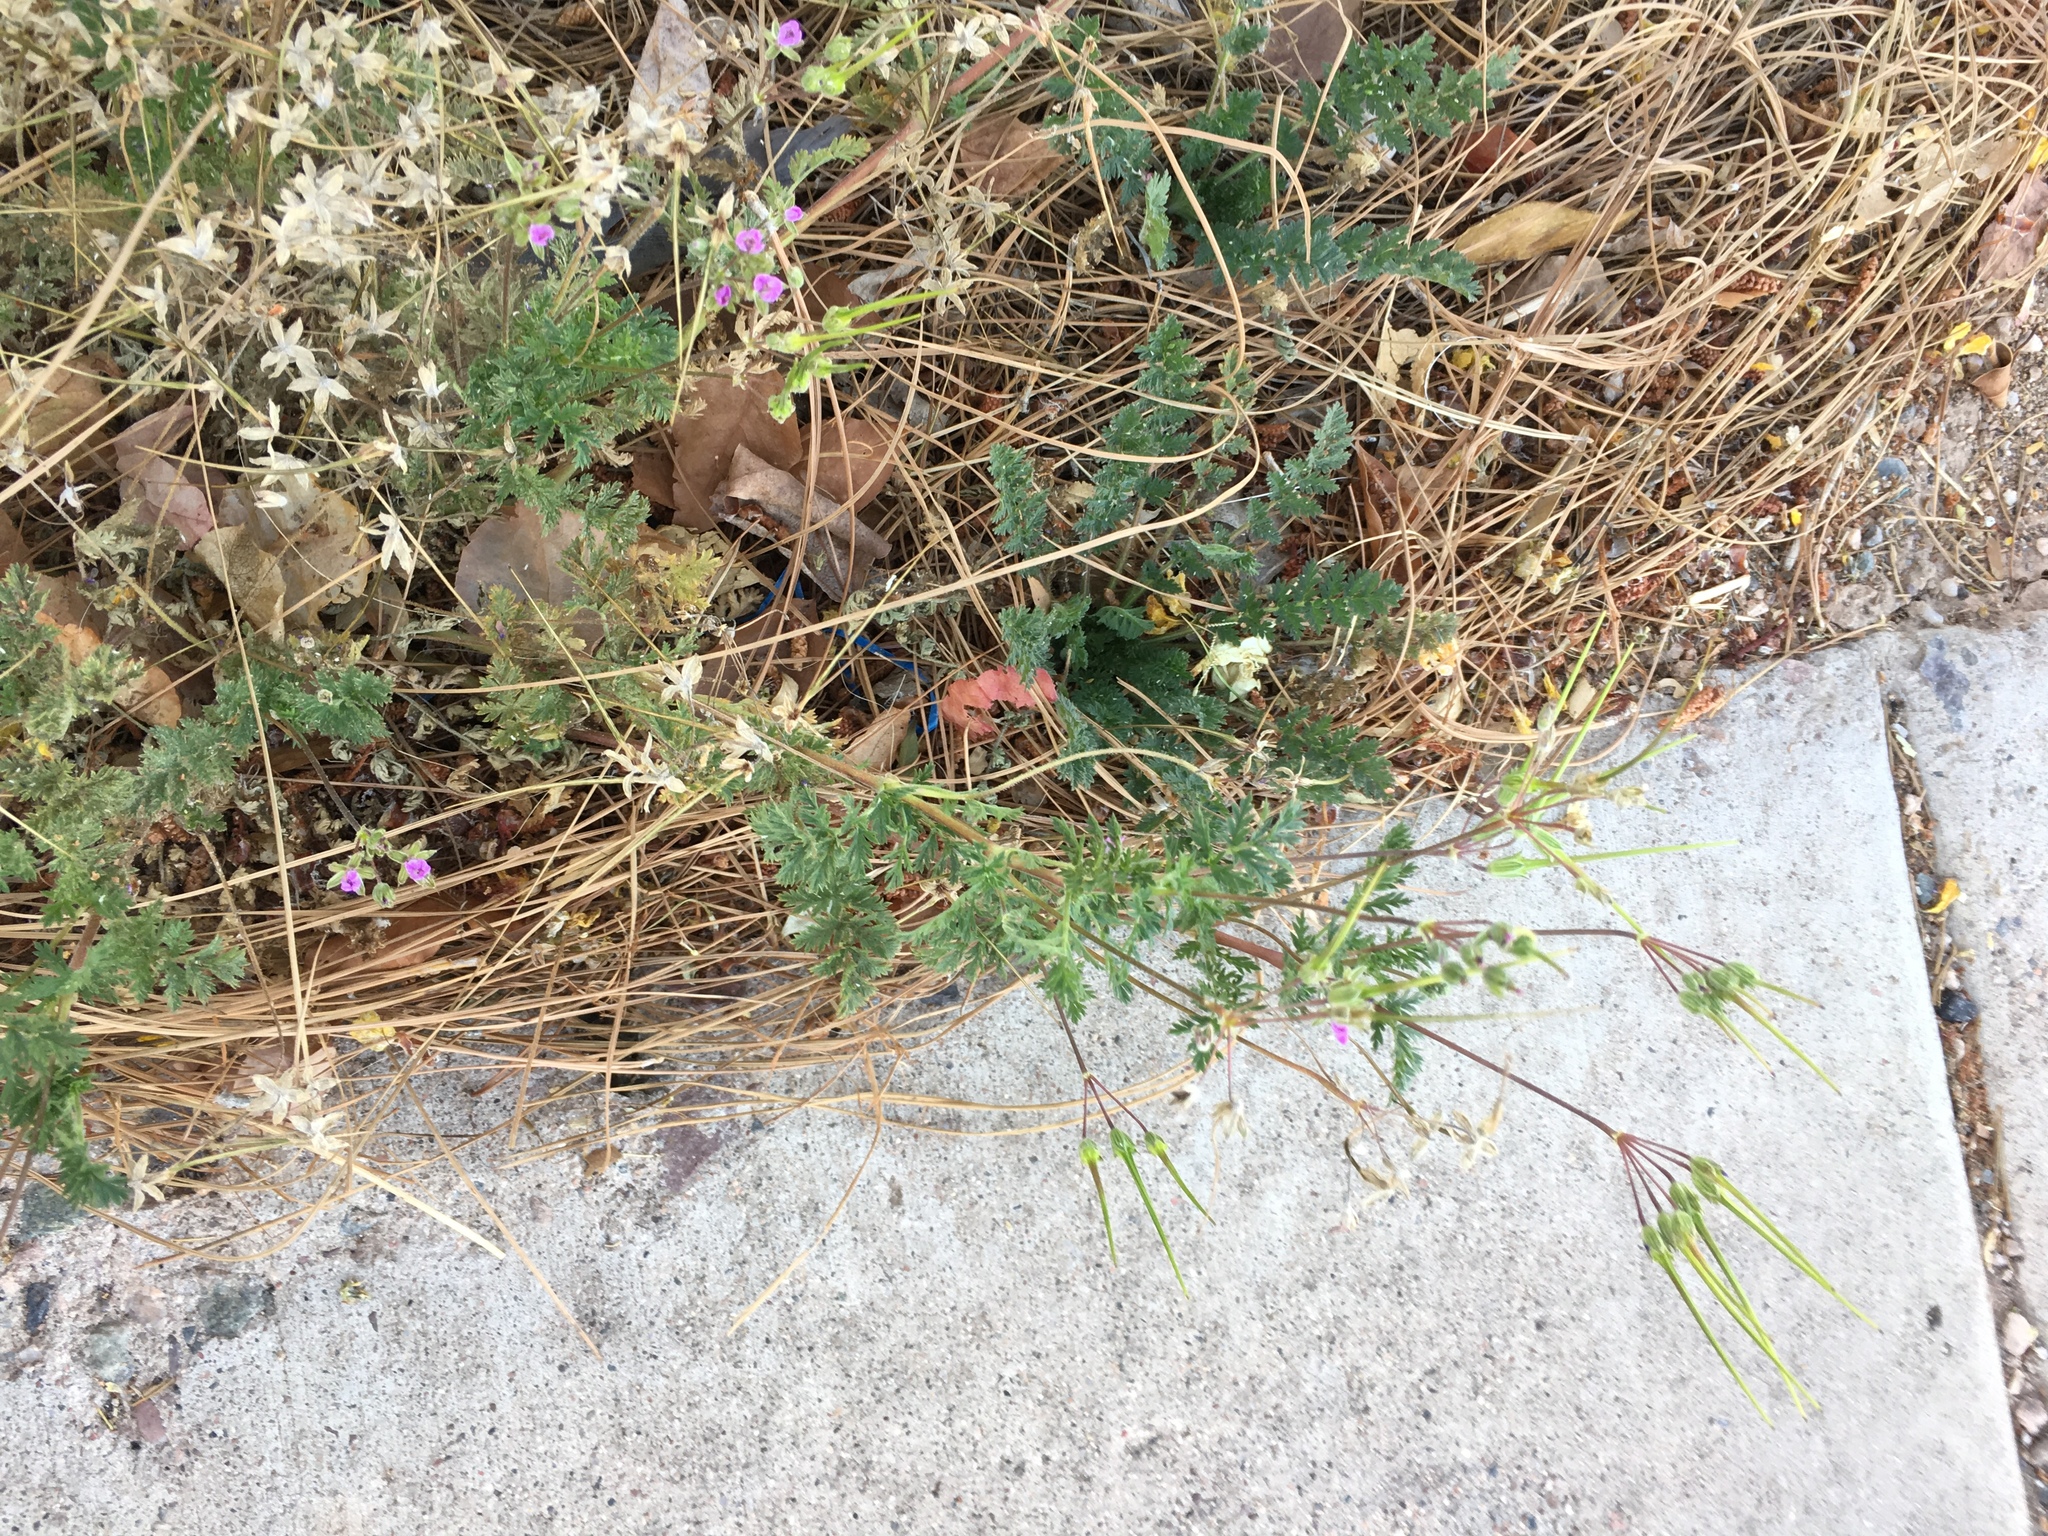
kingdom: Plantae
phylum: Tracheophyta
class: Magnoliopsida
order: Geraniales
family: Geraniaceae
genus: Erodium
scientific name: Erodium cicutarium
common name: Common stork's-bill
